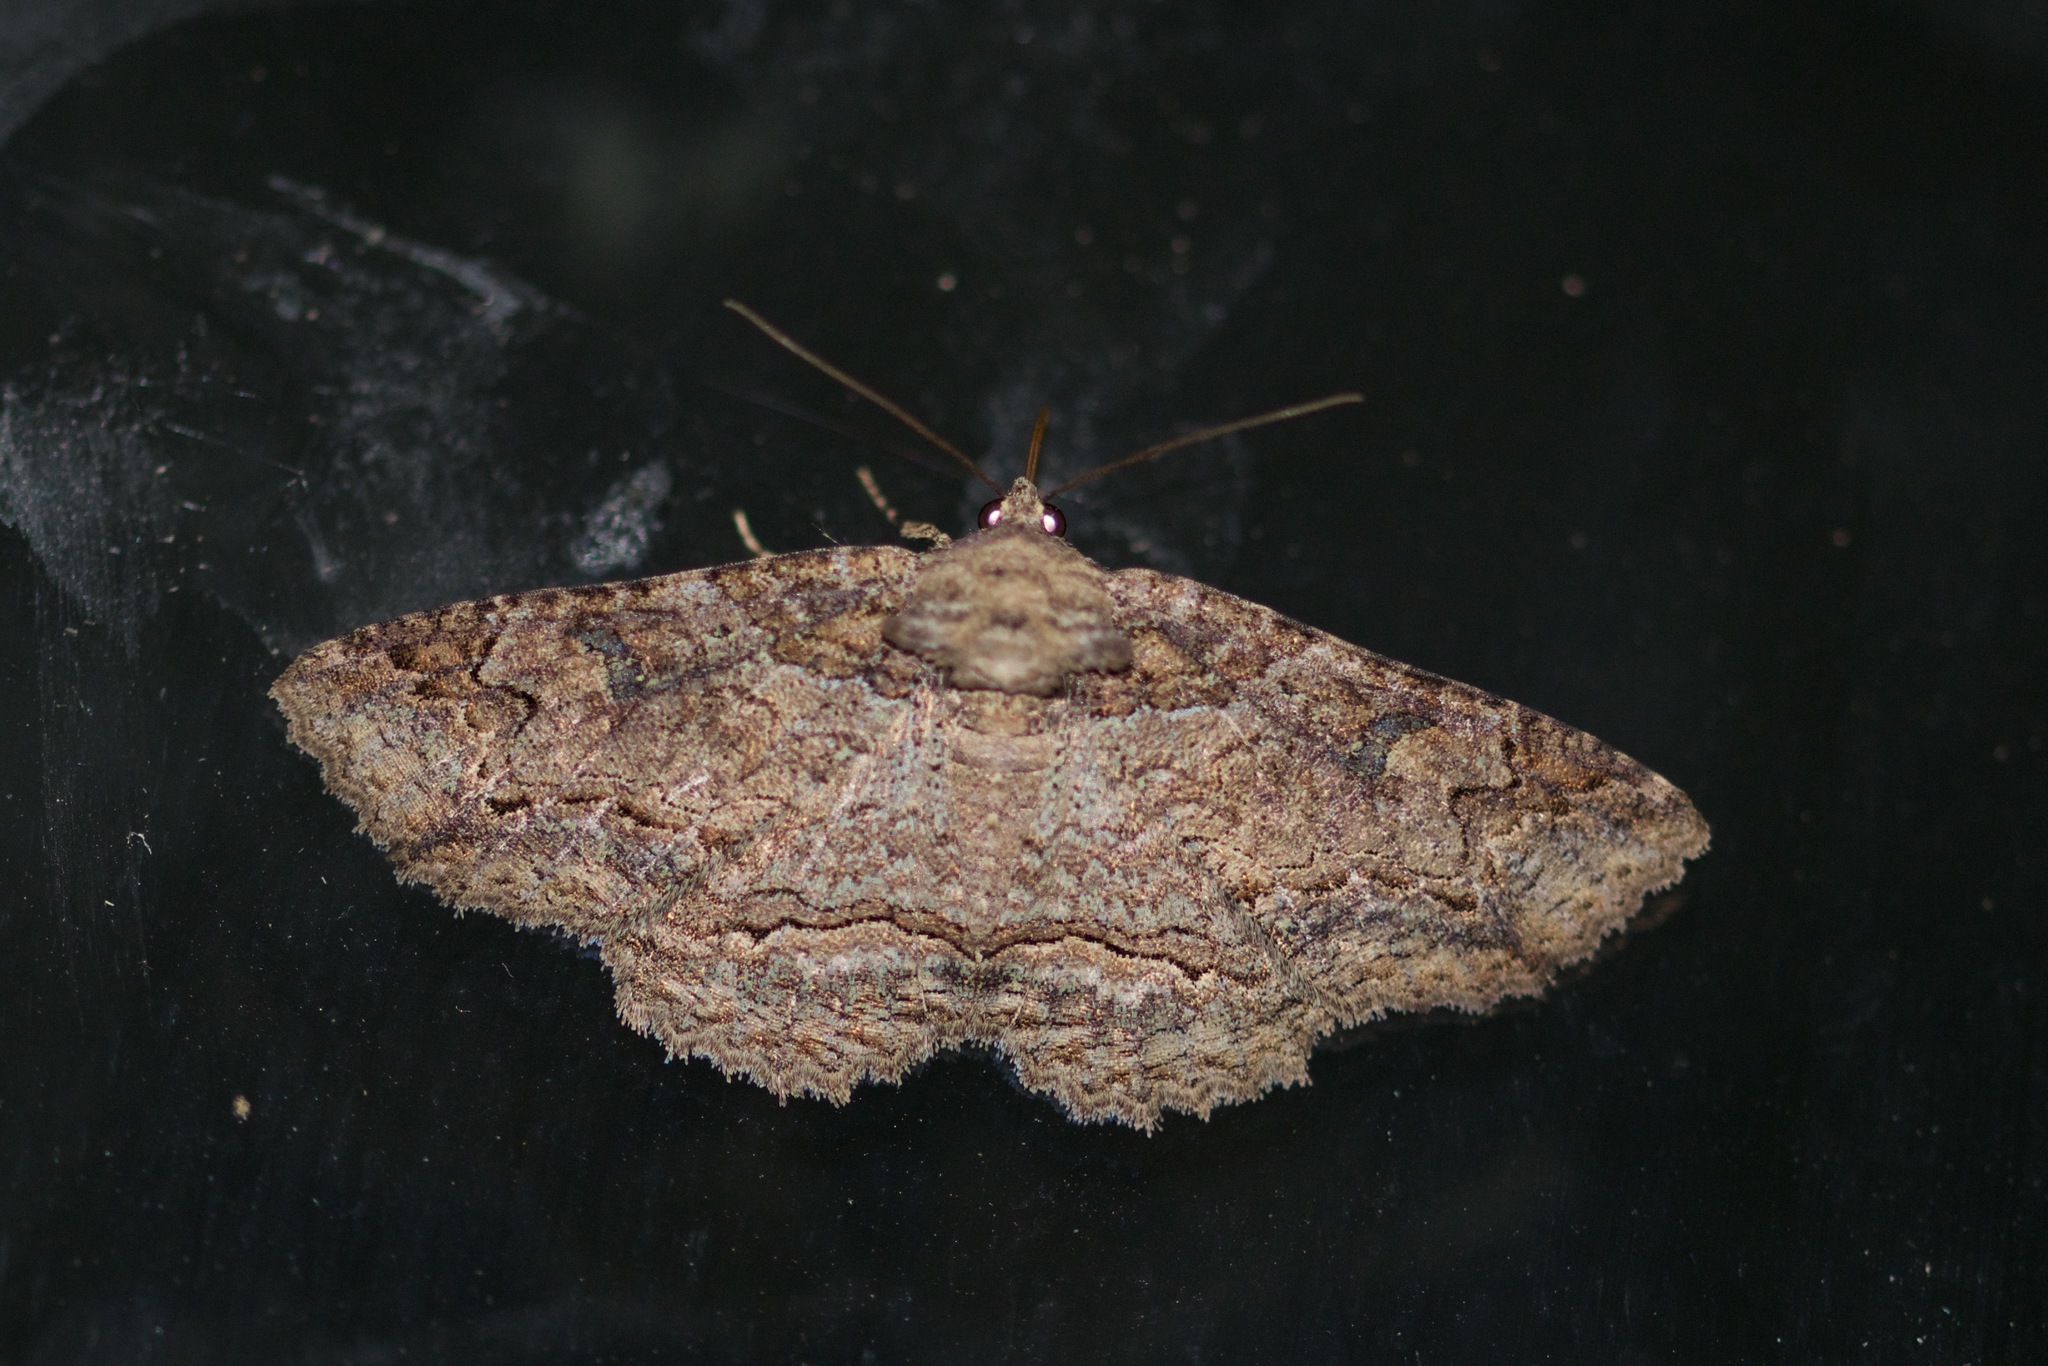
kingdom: Animalia
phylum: Arthropoda
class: Insecta
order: Lepidoptera
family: Erebidae
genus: Zale
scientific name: Zale galbanata
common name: Maple zale
